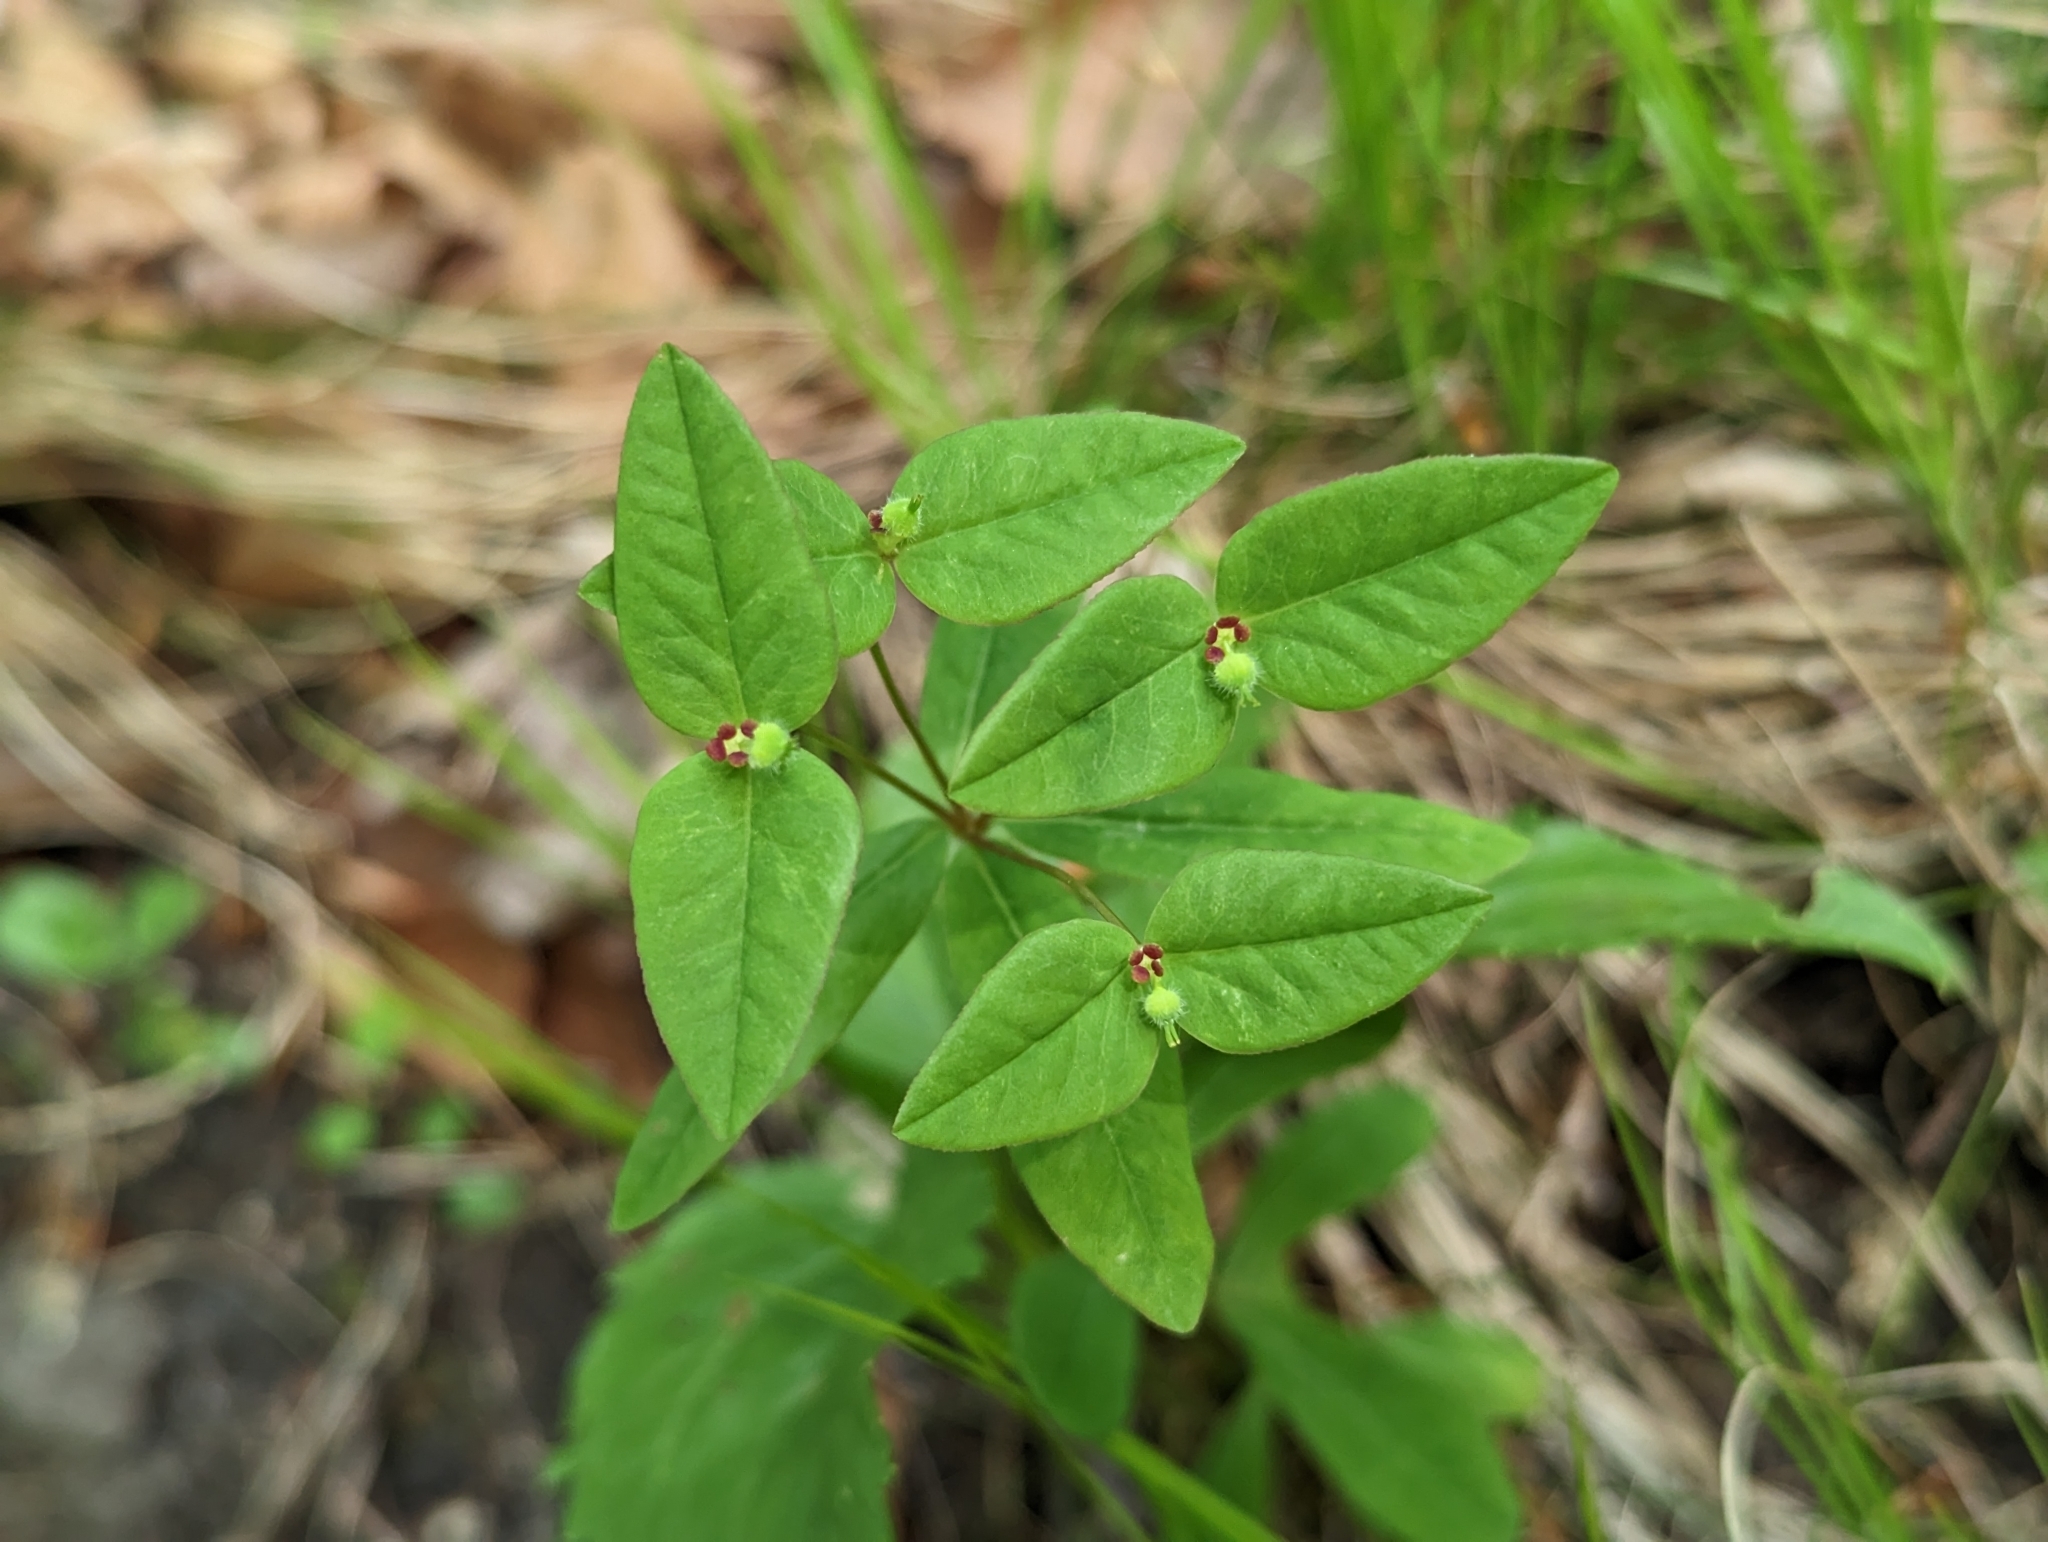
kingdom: Plantae
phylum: Tracheophyta
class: Magnoliopsida
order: Malpighiales
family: Euphorbiaceae
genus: Euphorbia
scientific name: Euphorbia dulcis
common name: Sweet spurge
